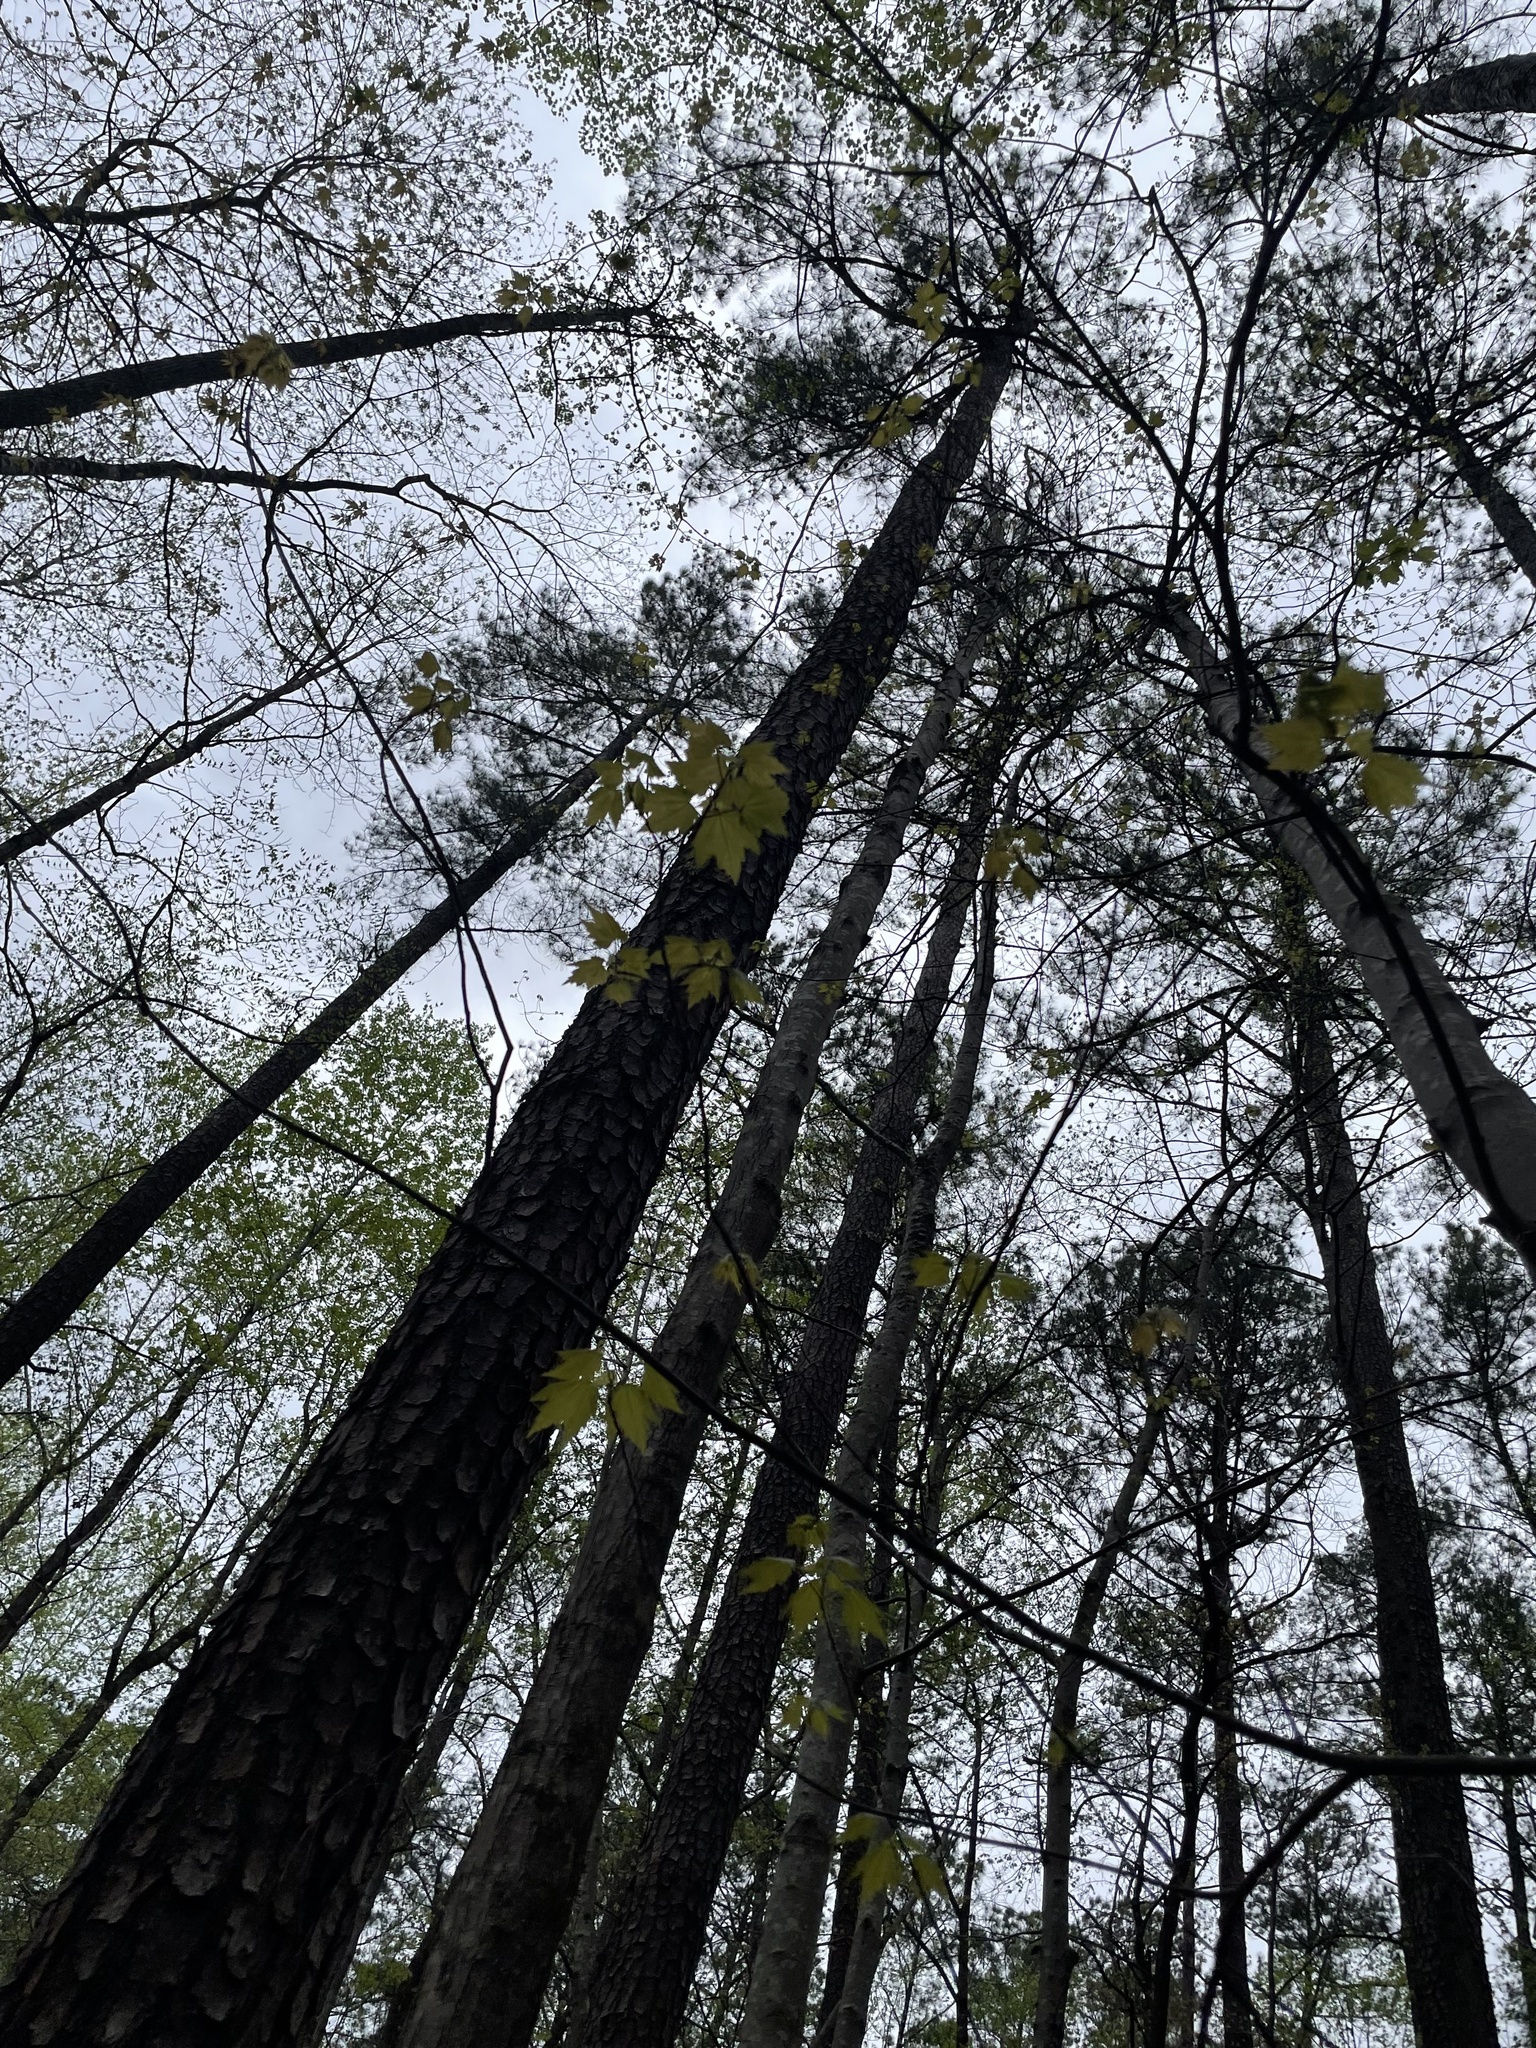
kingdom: Plantae
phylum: Tracheophyta
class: Magnoliopsida
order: Sapindales
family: Sapindaceae
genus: Acer
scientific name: Acer rubrum
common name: Red maple
